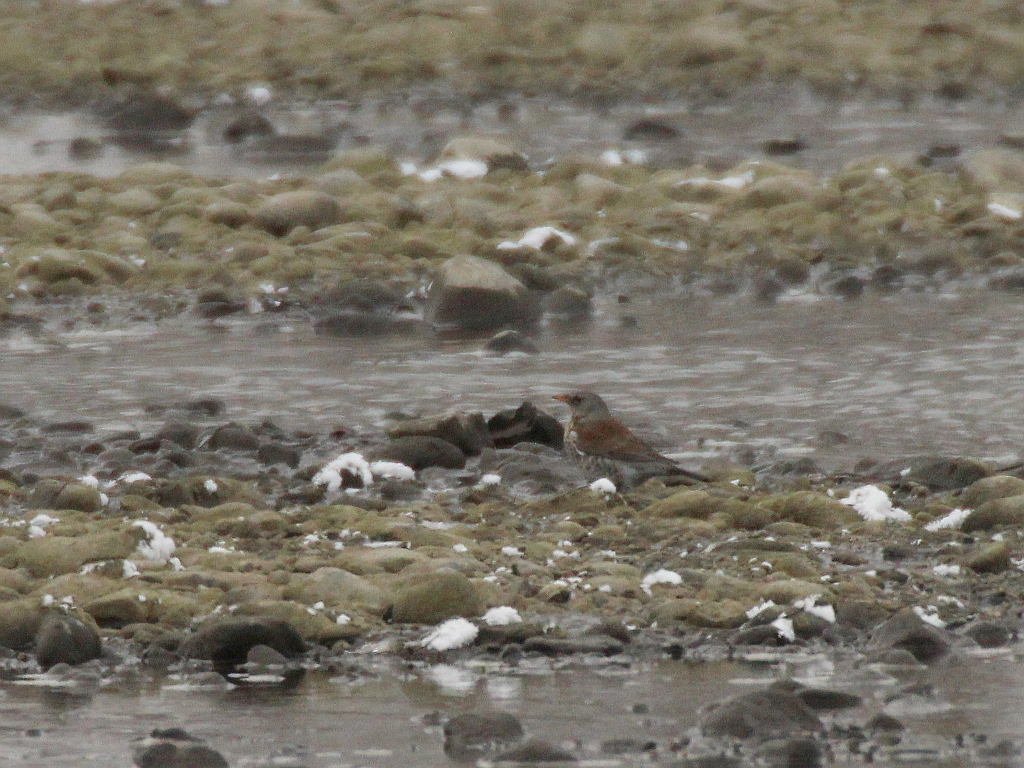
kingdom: Animalia
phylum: Chordata
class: Aves
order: Passeriformes
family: Turdidae
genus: Turdus
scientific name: Turdus pilaris
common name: Fieldfare
